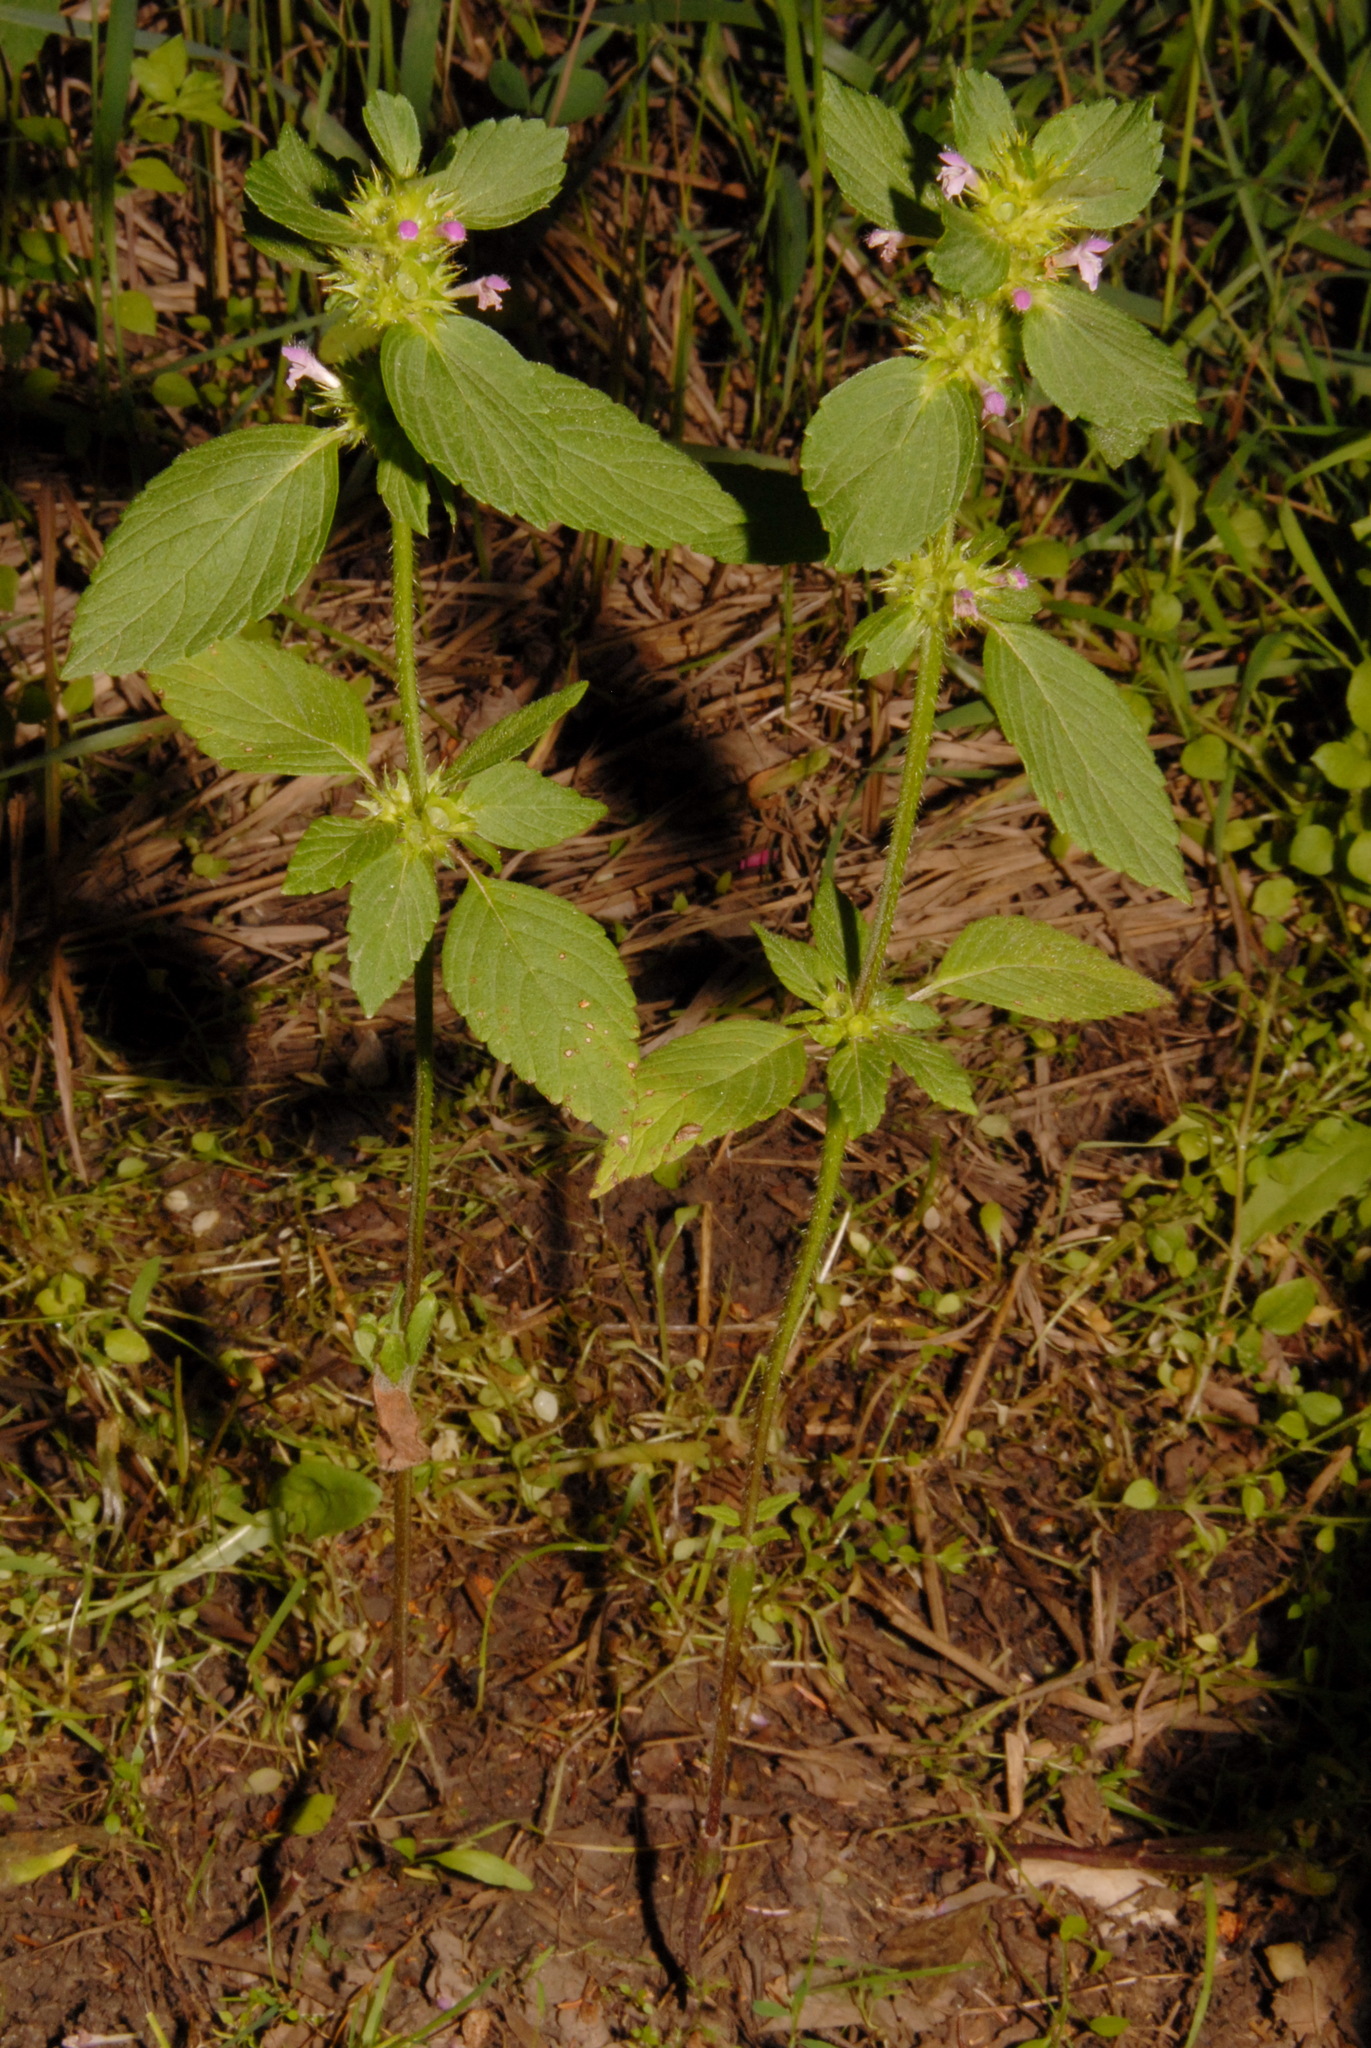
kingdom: Plantae
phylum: Tracheophyta
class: Magnoliopsida
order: Lamiales
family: Lamiaceae
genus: Galeopsis
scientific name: Galeopsis bifida
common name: Bifid hemp-nettle
